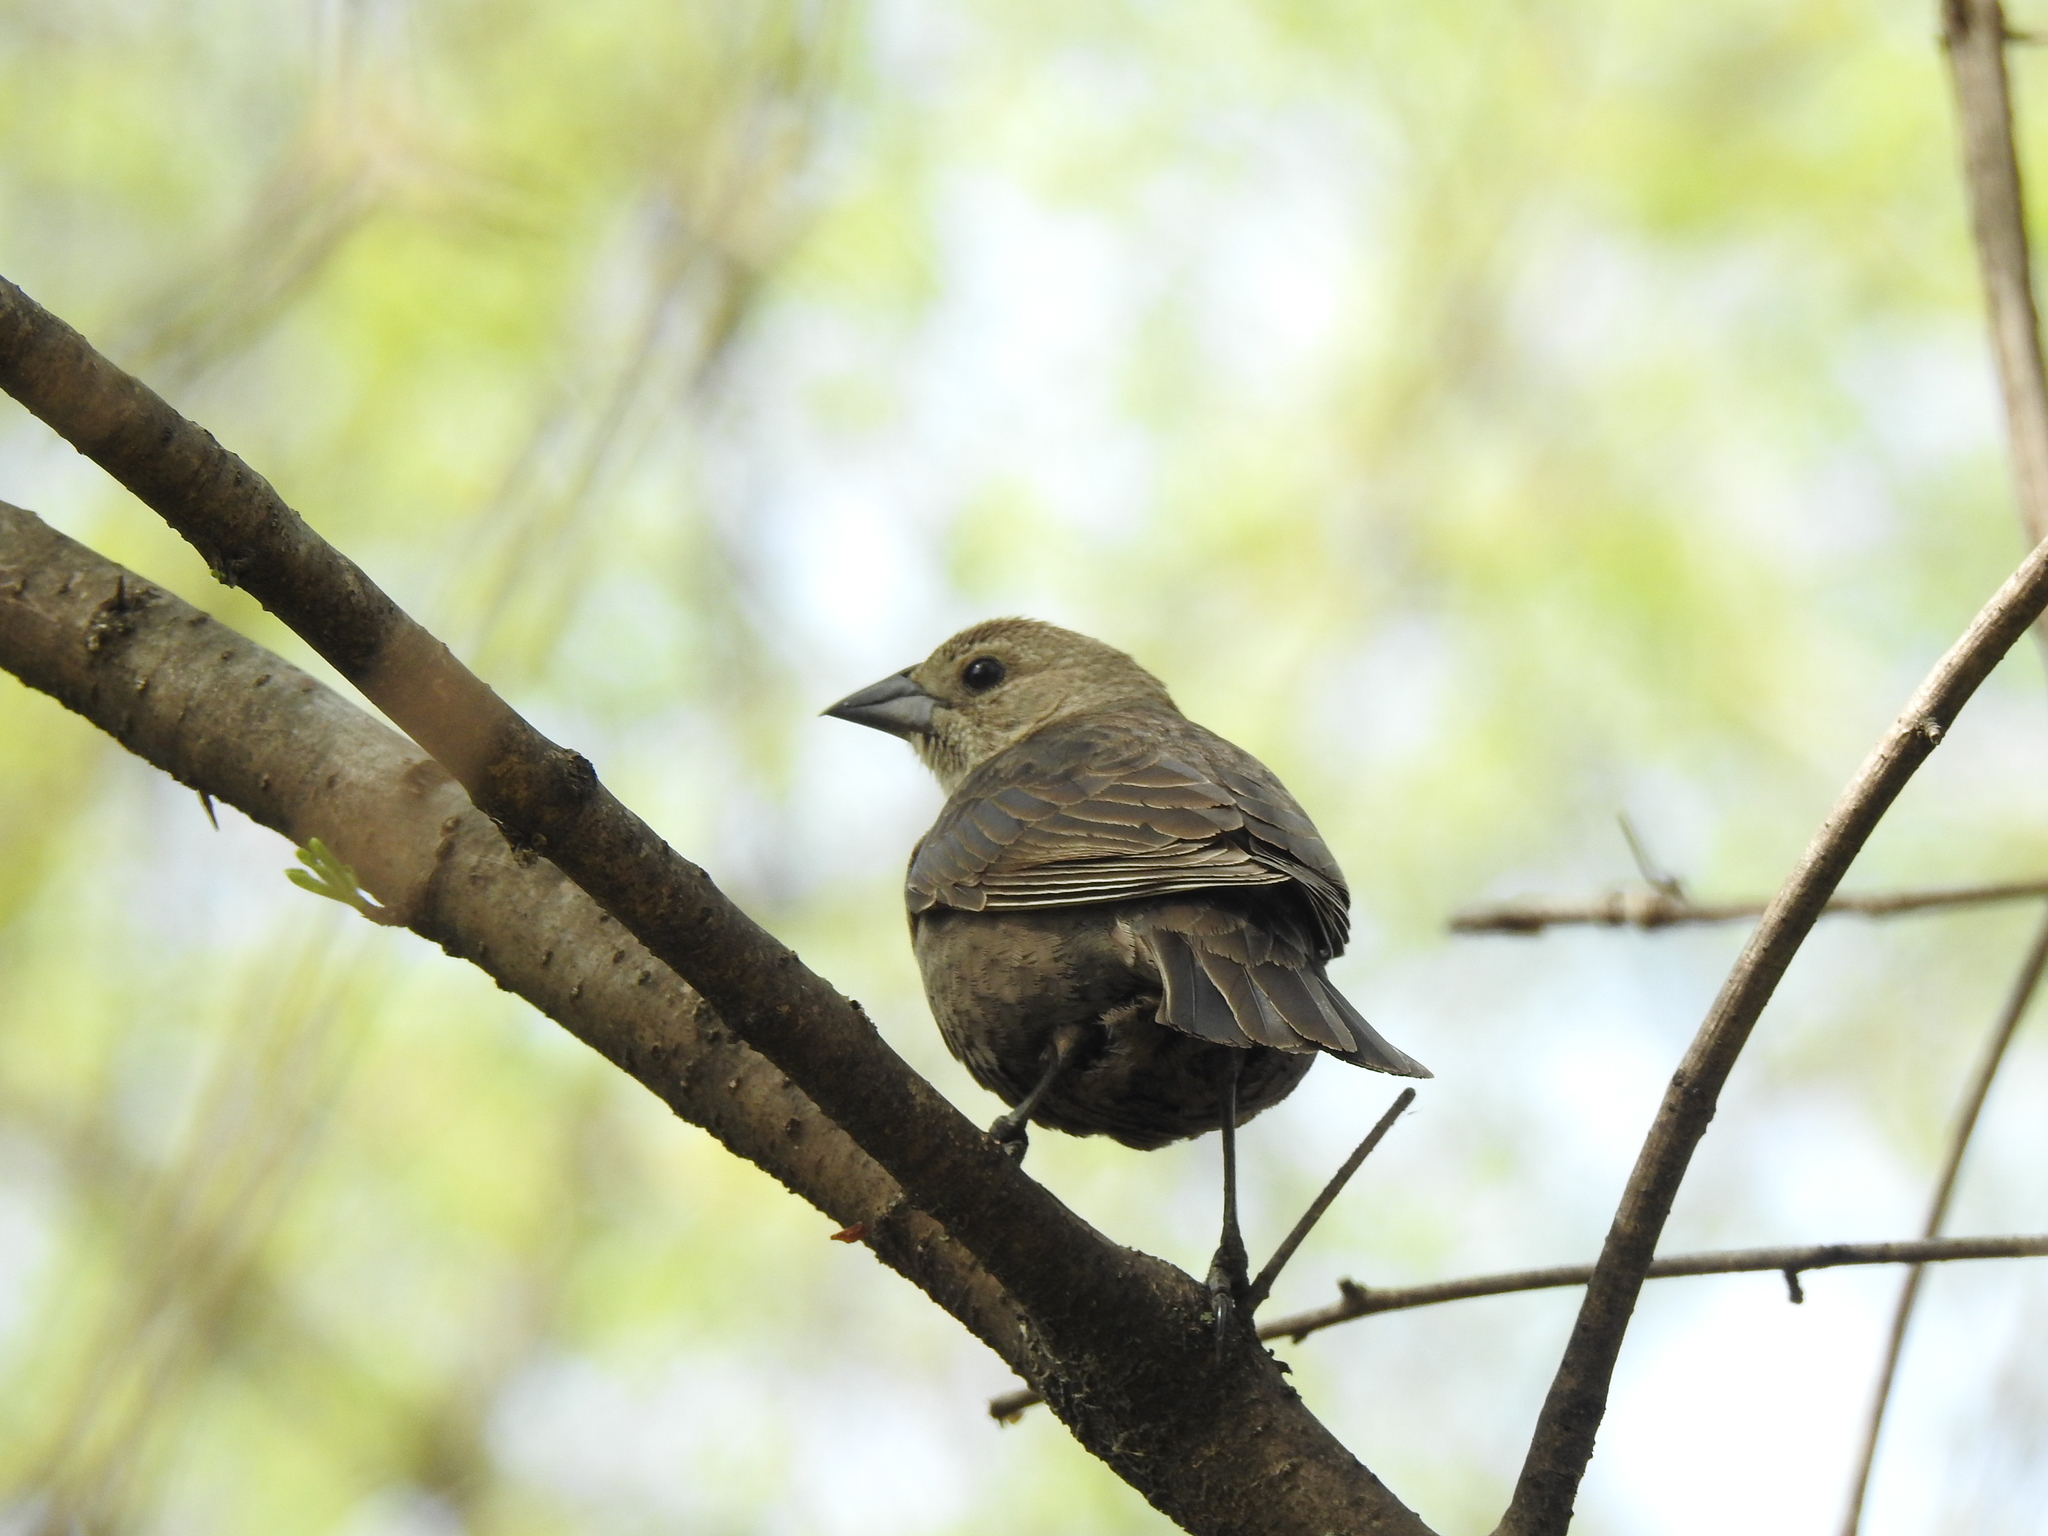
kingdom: Animalia
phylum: Chordata
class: Aves
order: Passeriformes
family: Icteridae
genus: Molothrus
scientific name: Molothrus ater
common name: Brown-headed cowbird
